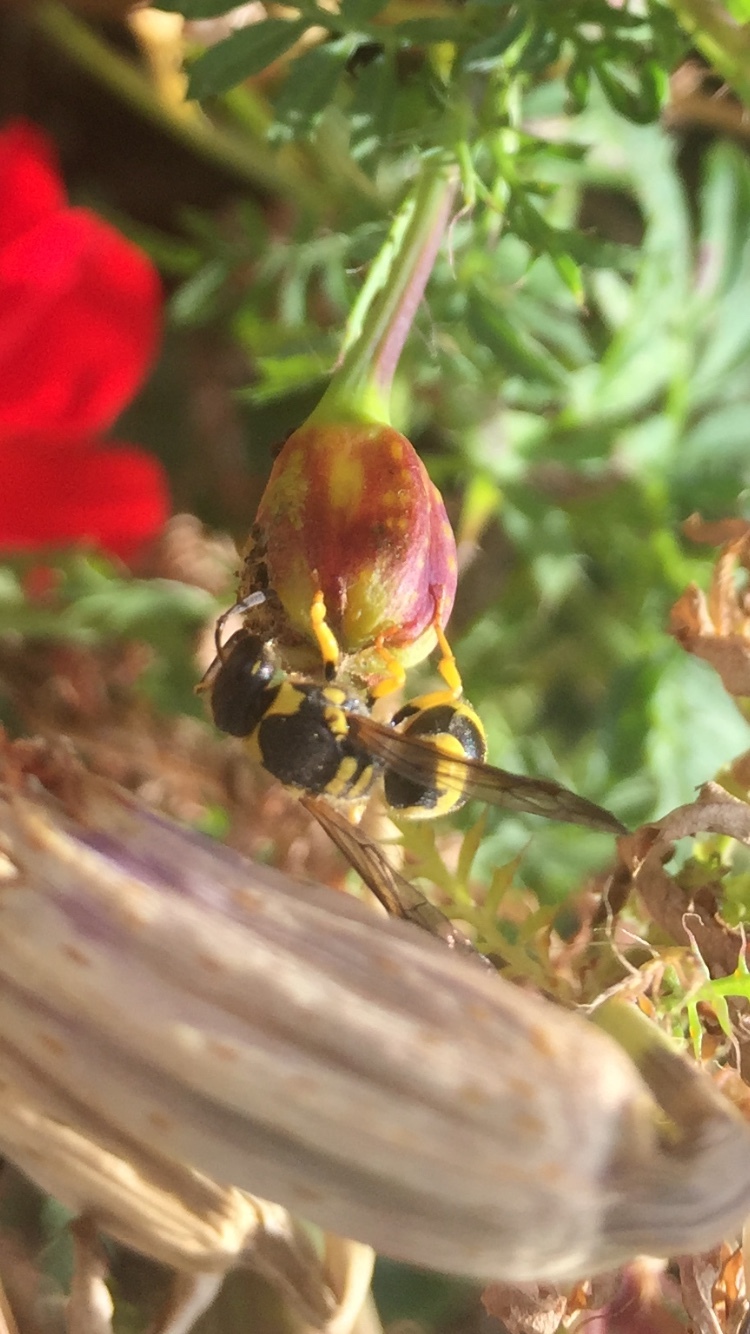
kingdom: Animalia
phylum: Arthropoda
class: Insecta
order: Hymenoptera
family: Vespidae
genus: Ancistrocerus
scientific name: Ancistrocerus gazella
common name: European tube wasp
